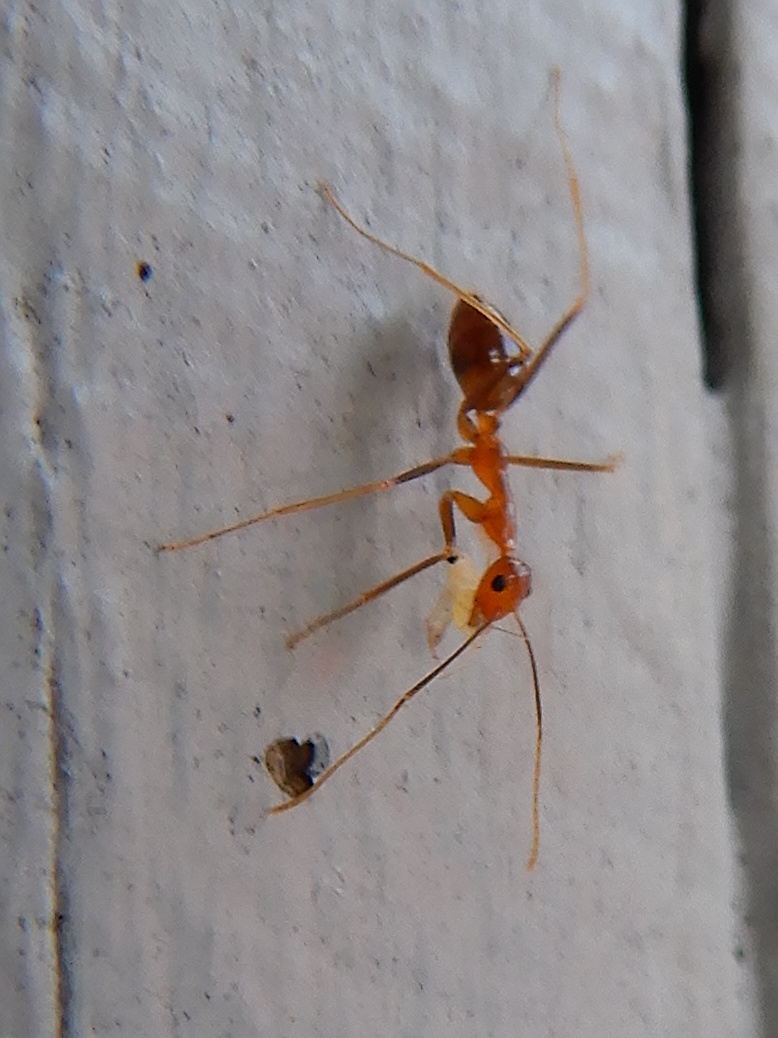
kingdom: Animalia
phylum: Arthropoda
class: Insecta
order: Hymenoptera
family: Formicidae
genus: Anoplolepis
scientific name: Anoplolepis gracilipes
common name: Ant
